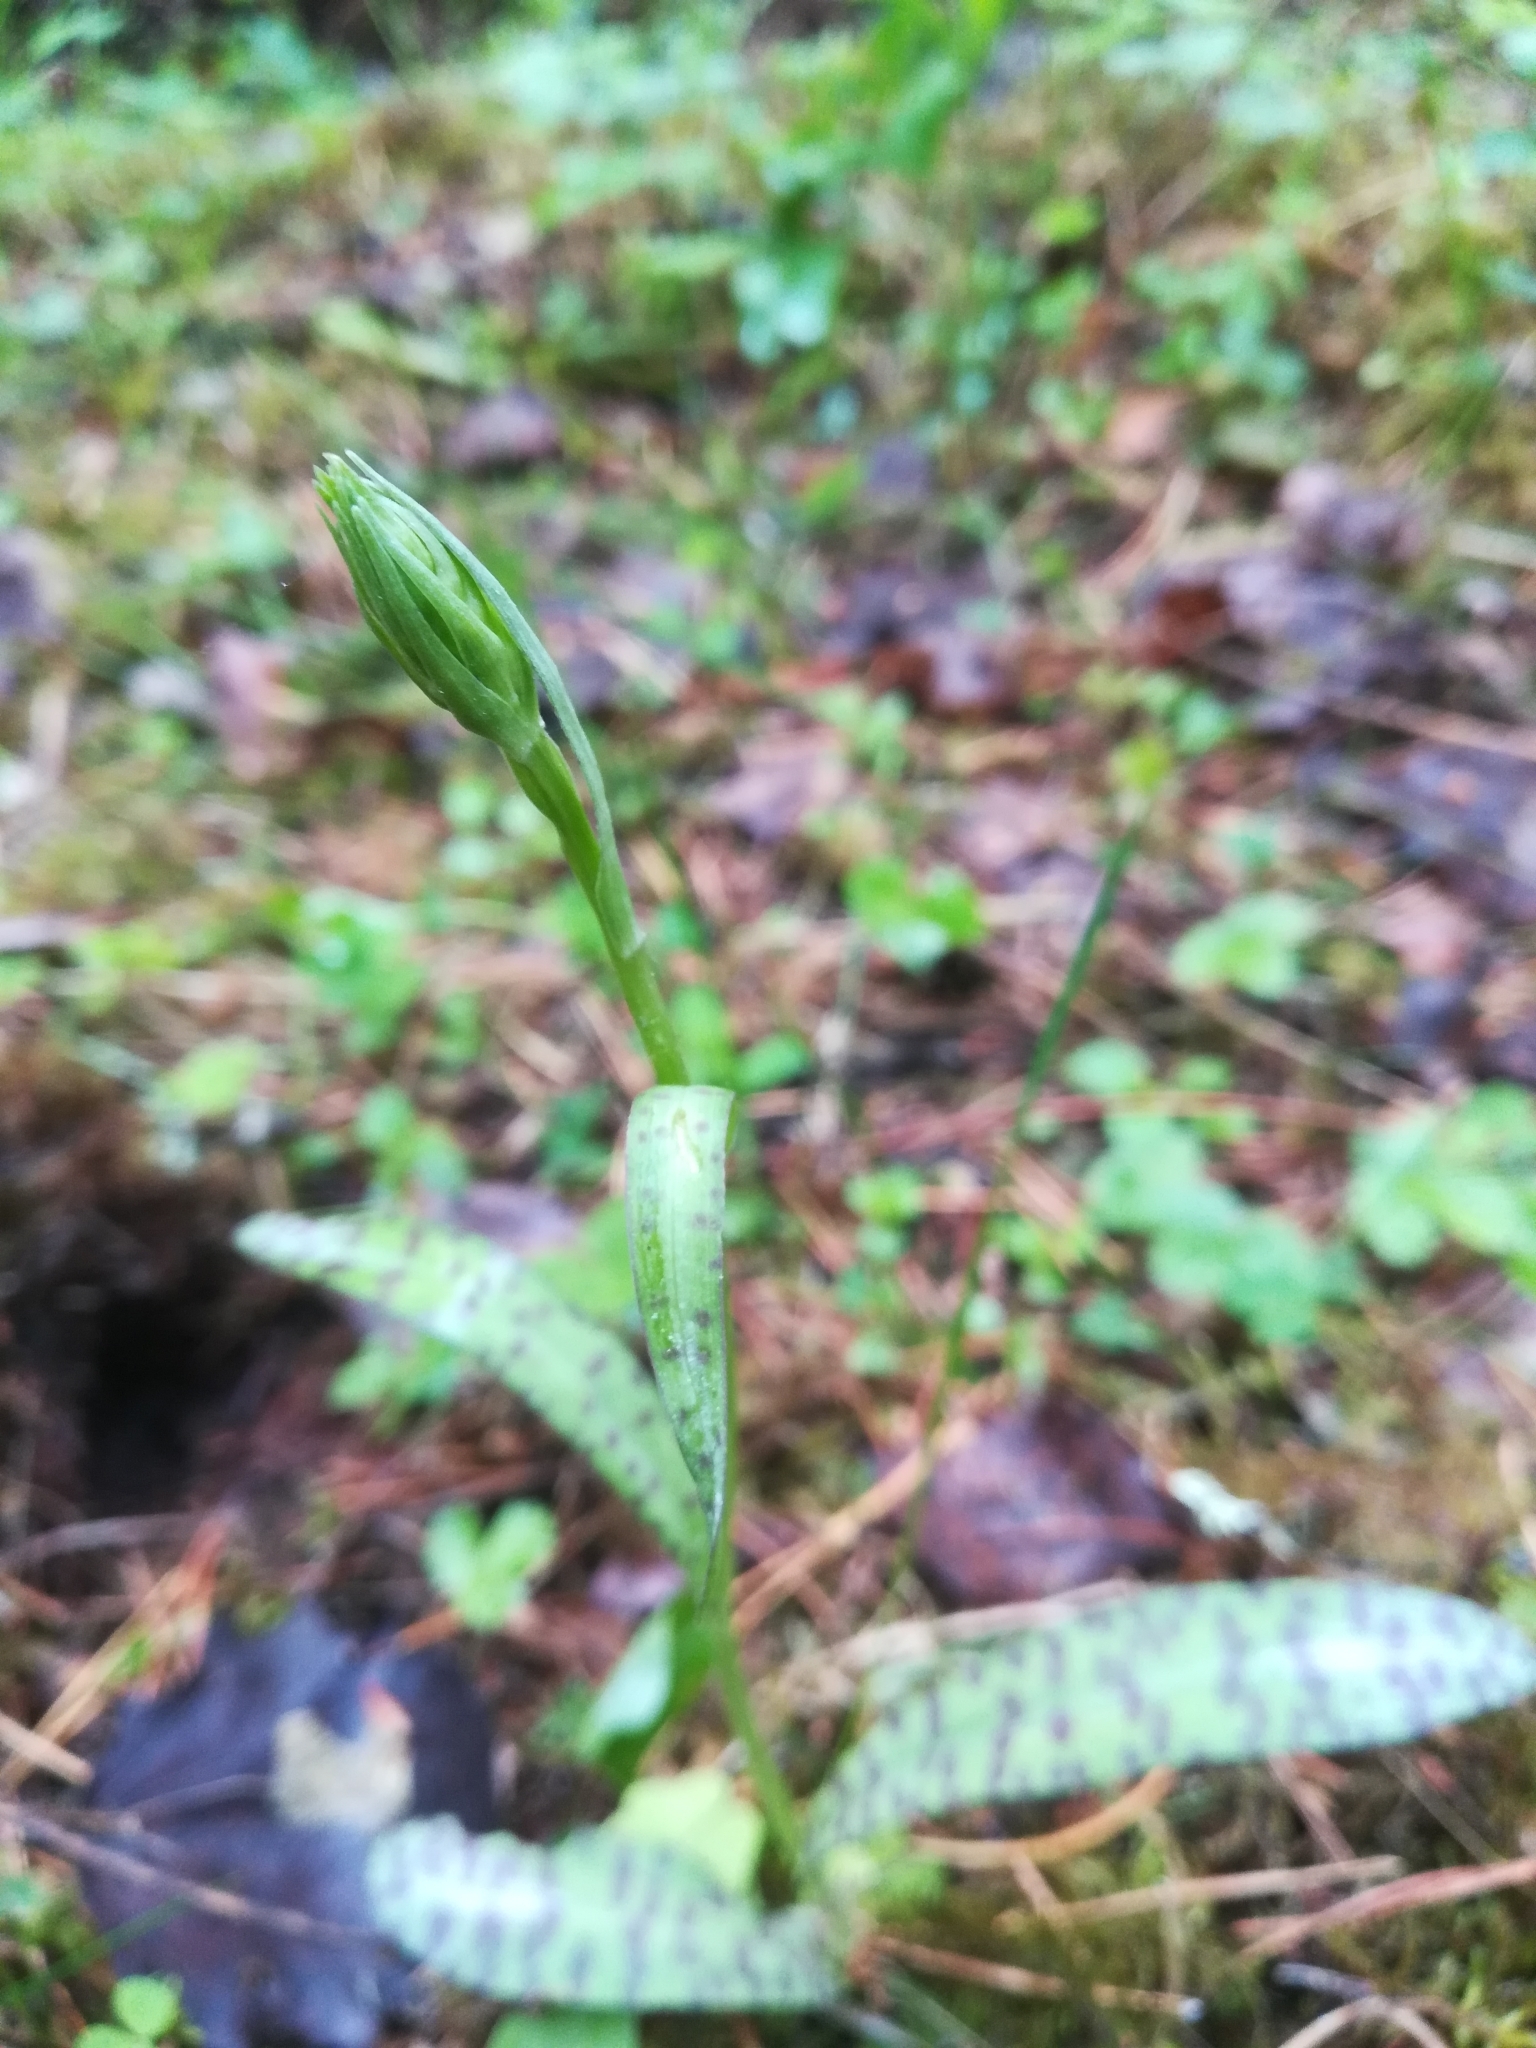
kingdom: Plantae
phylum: Tracheophyta
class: Liliopsida
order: Asparagales
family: Orchidaceae
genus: Dactylorhiza
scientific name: Dactylorhiza maculata
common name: Heath spotted-orchid
